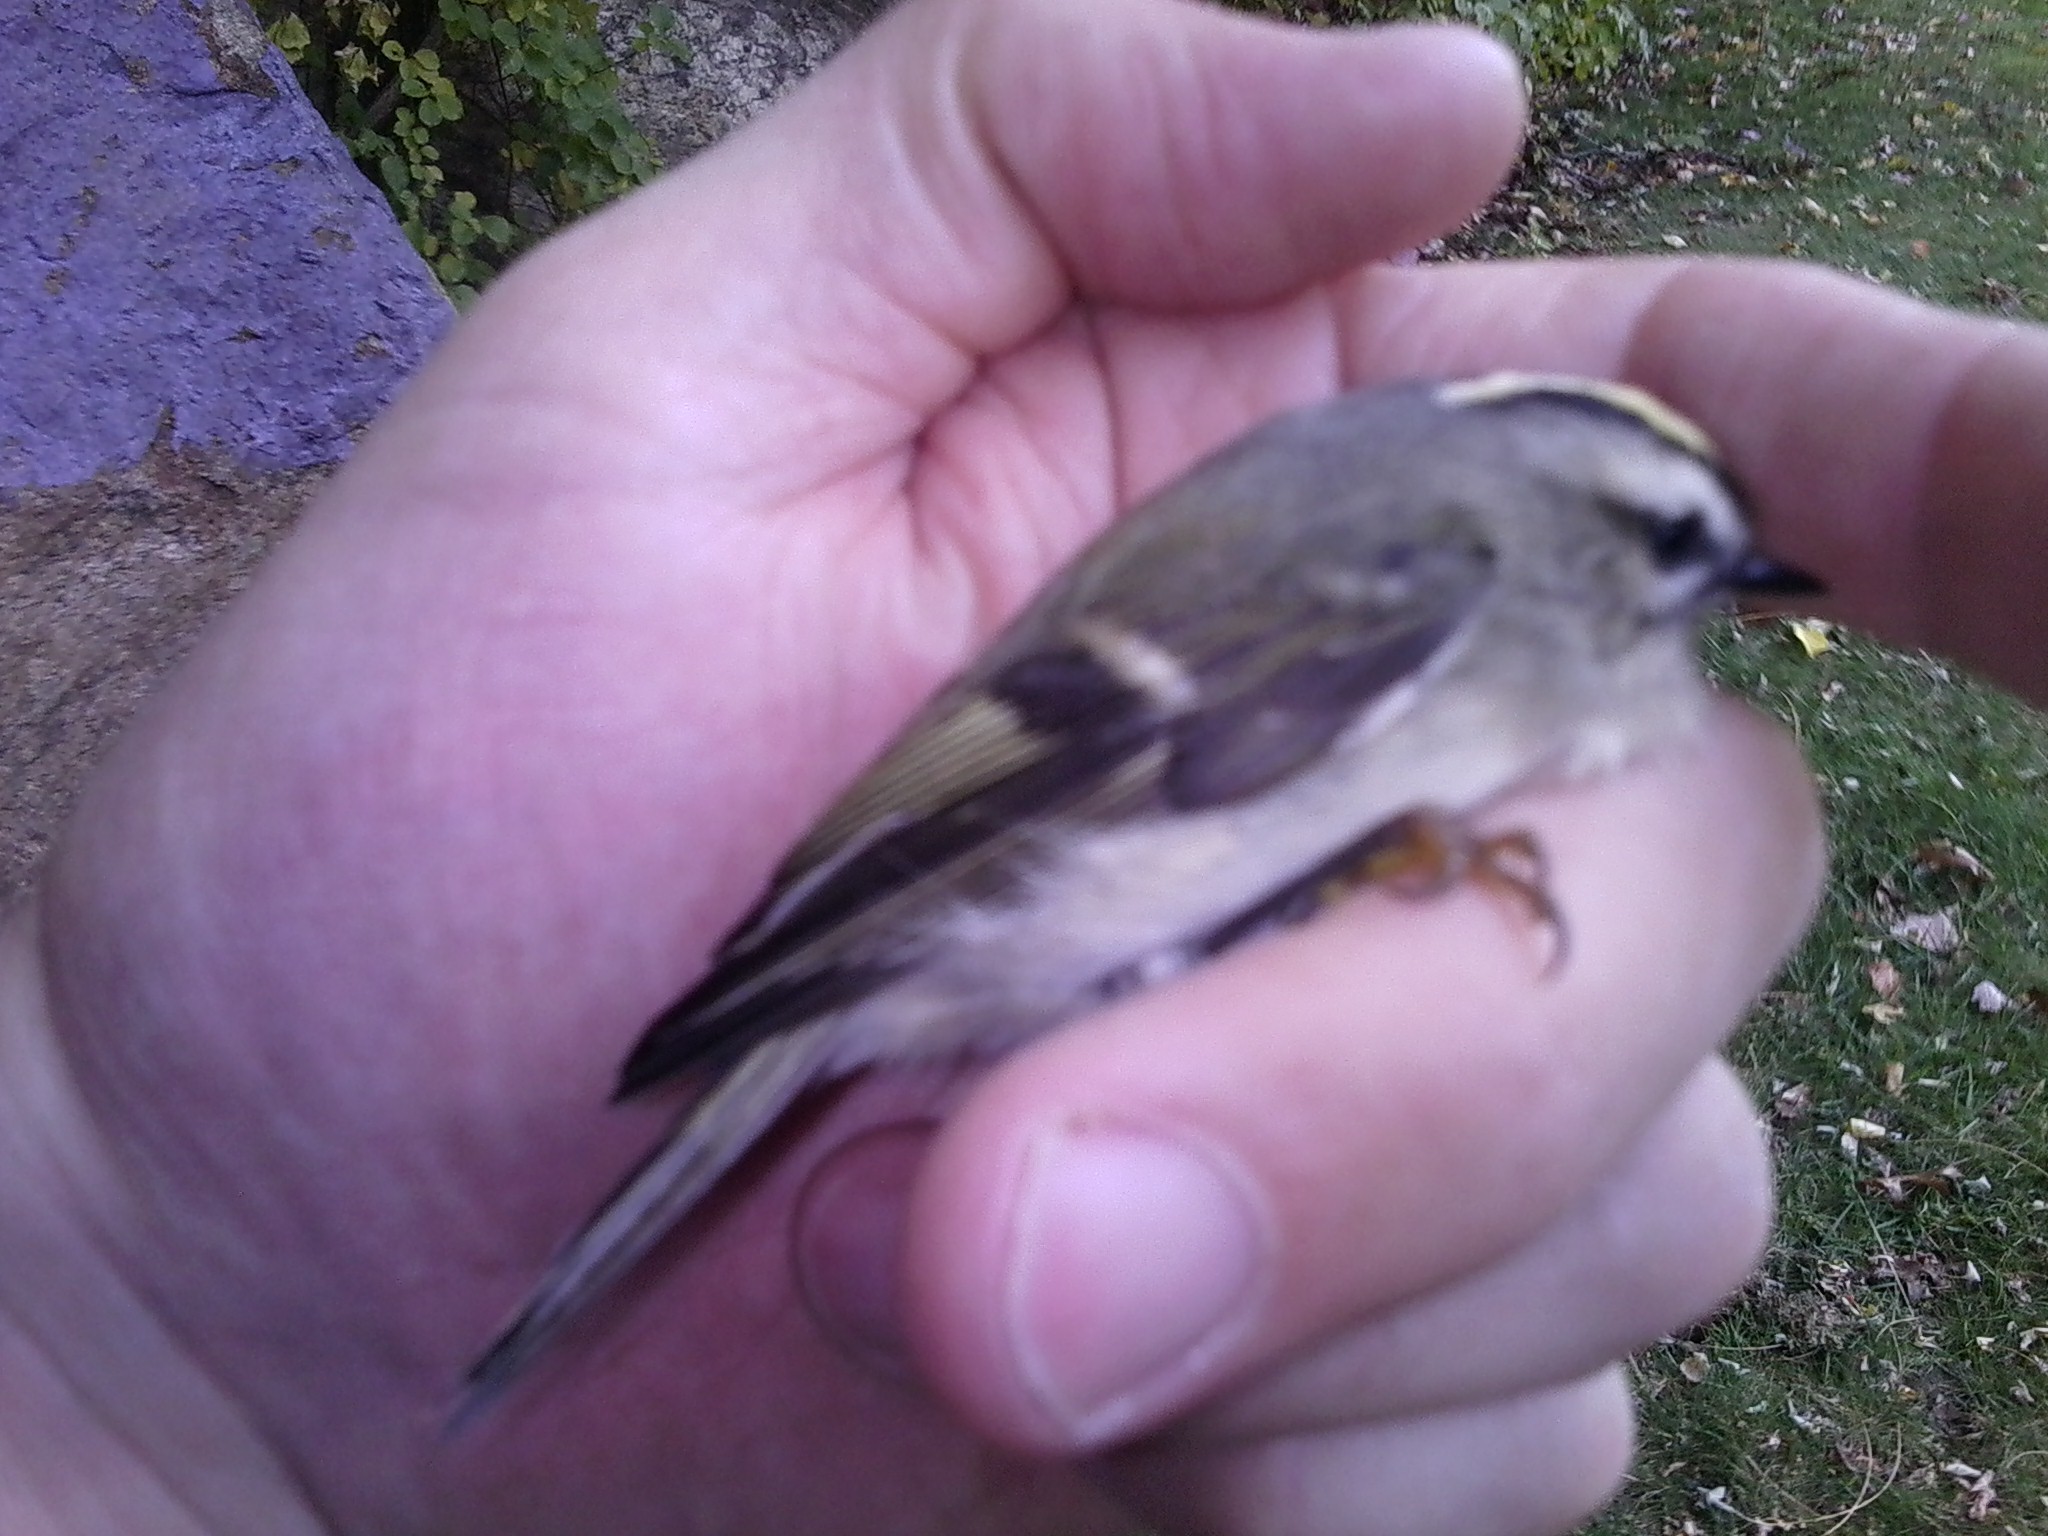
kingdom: Animalia
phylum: Chordata
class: Aves
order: Passeriformes
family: Regulidae
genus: Regulus
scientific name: Regulus satrapa
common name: Golden-crowned kinglet
